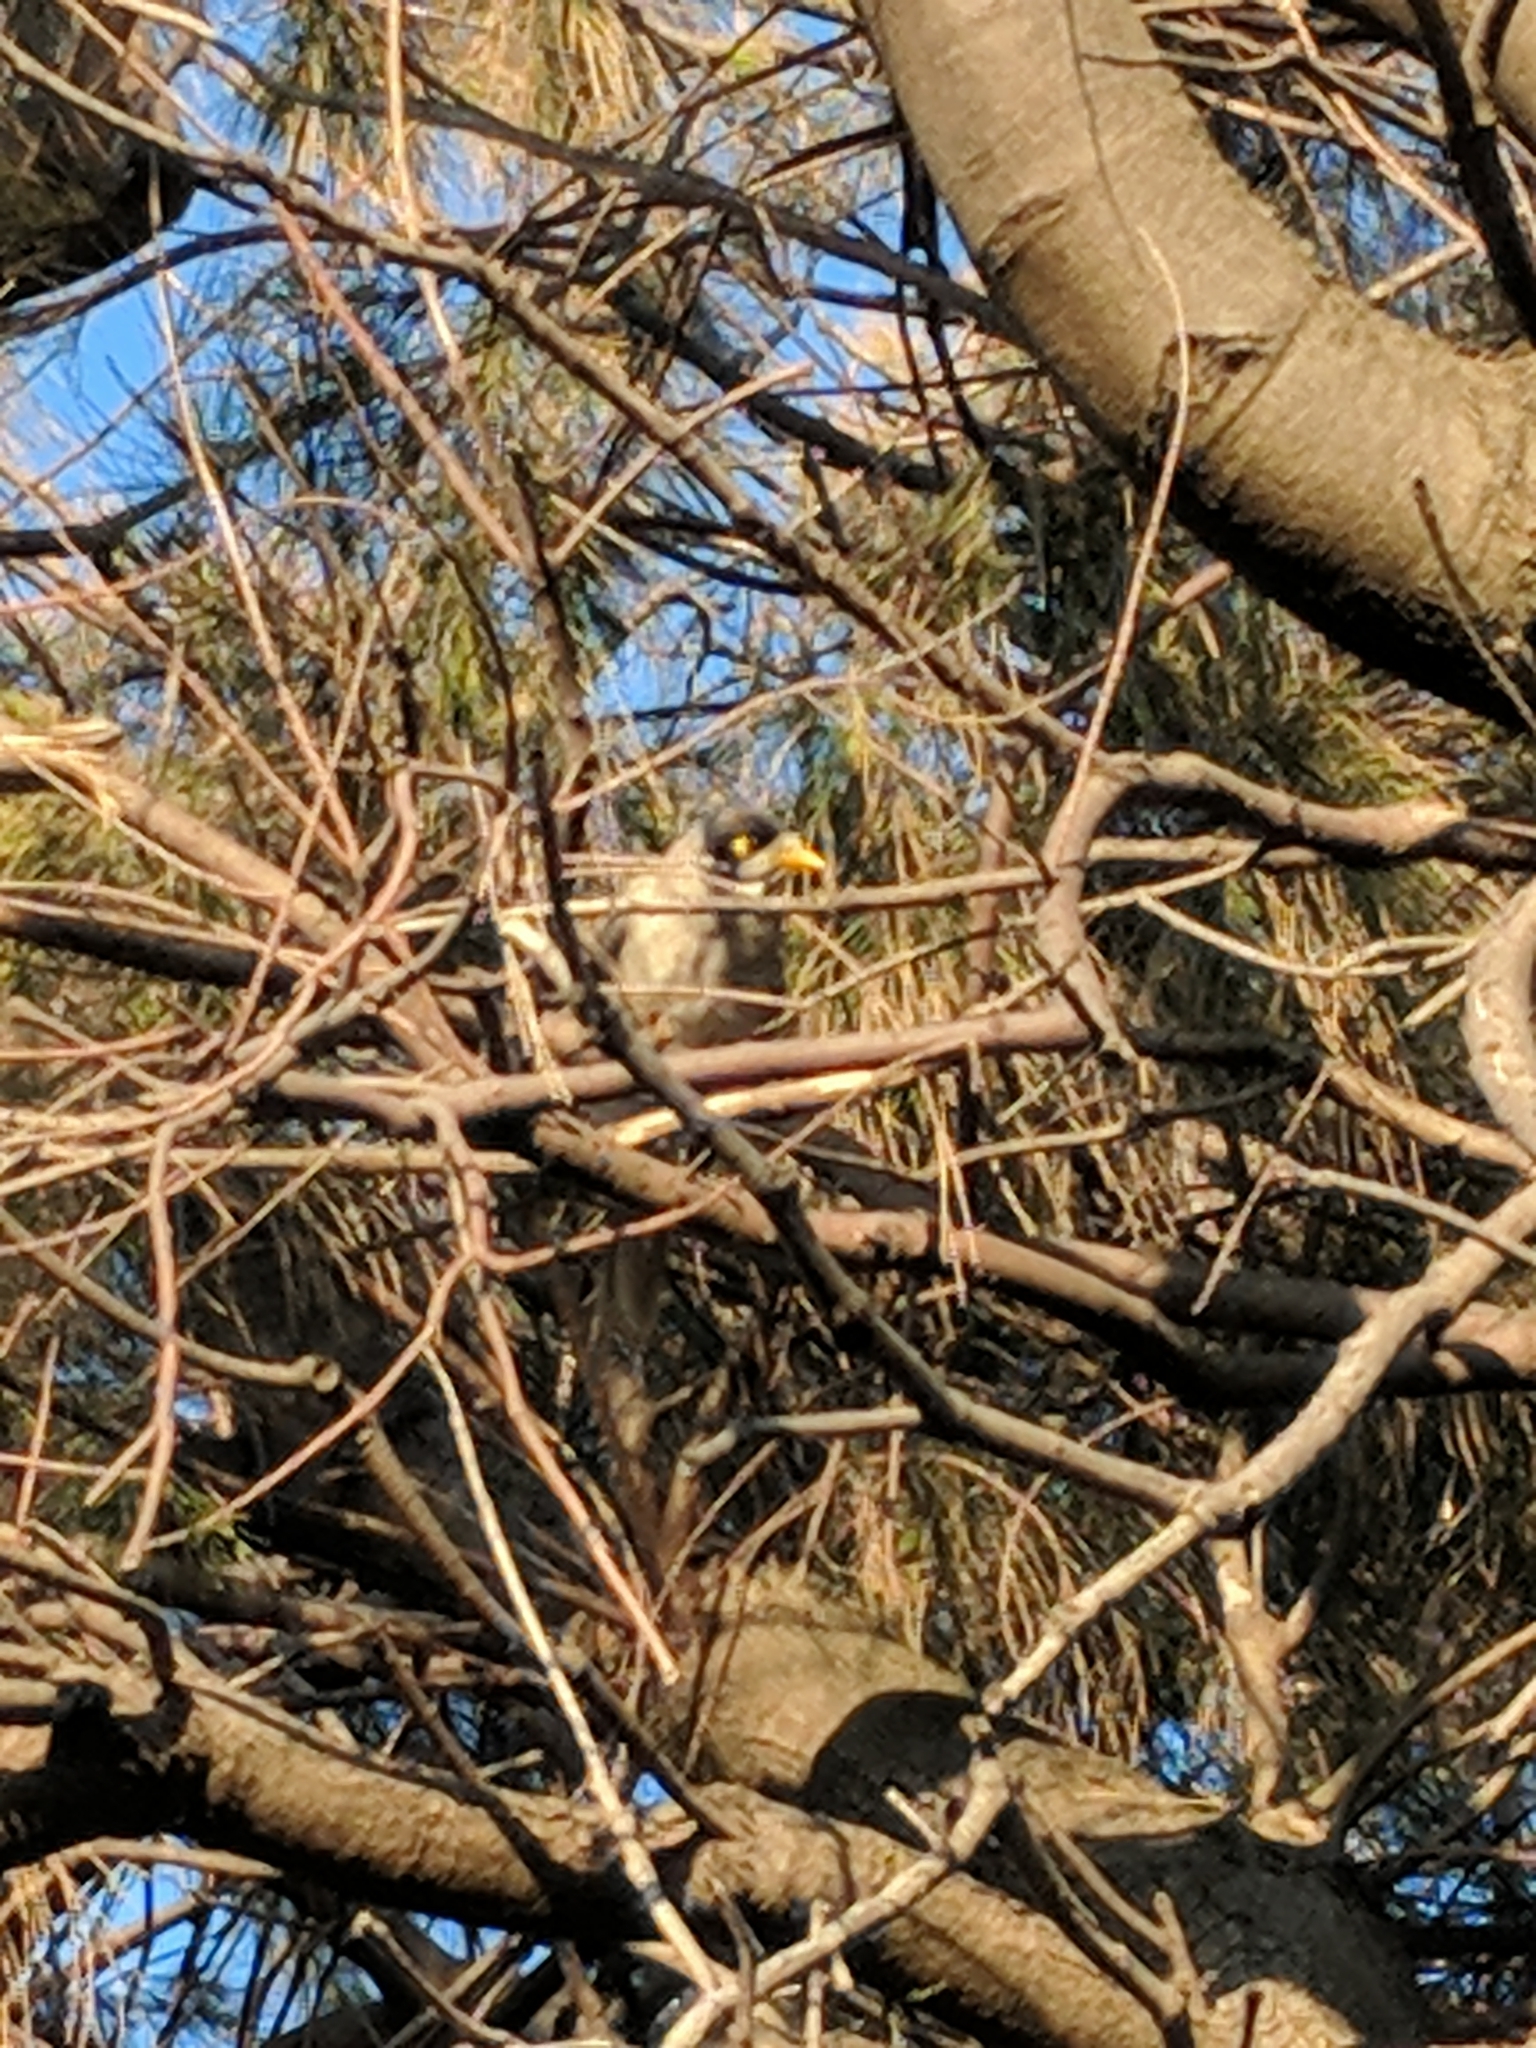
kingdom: Animalia
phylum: Chordata
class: Aves
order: Passeriformes
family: Meliphagidae
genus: Manorina
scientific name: Manorina melanocephala
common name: Noisy miner
